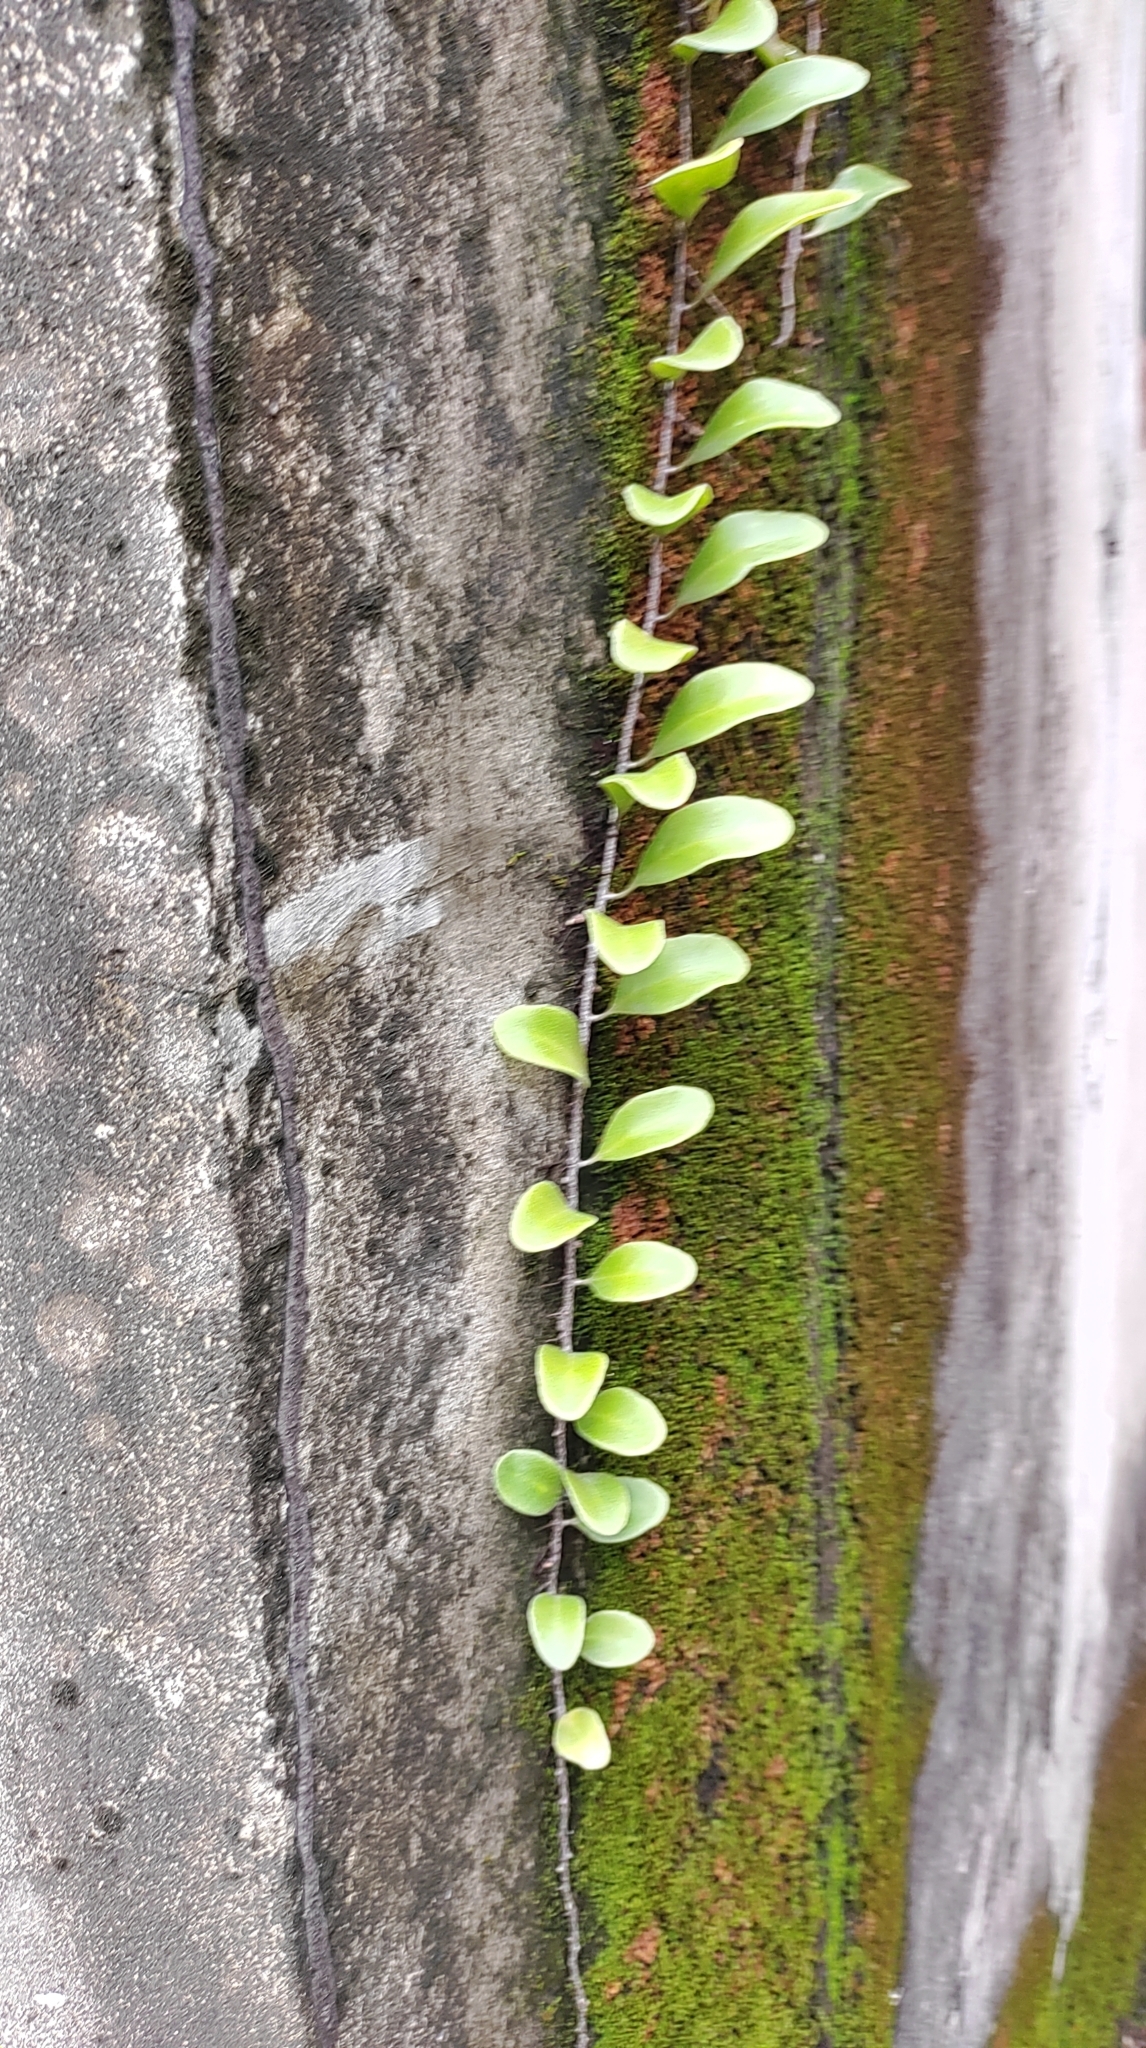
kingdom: Plantae
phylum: Tracheophyta
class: Polypodiopsida
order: Polypodiales
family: Polypodiaceae
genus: Pyrrosia
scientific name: Pyrrosia lanceolata
